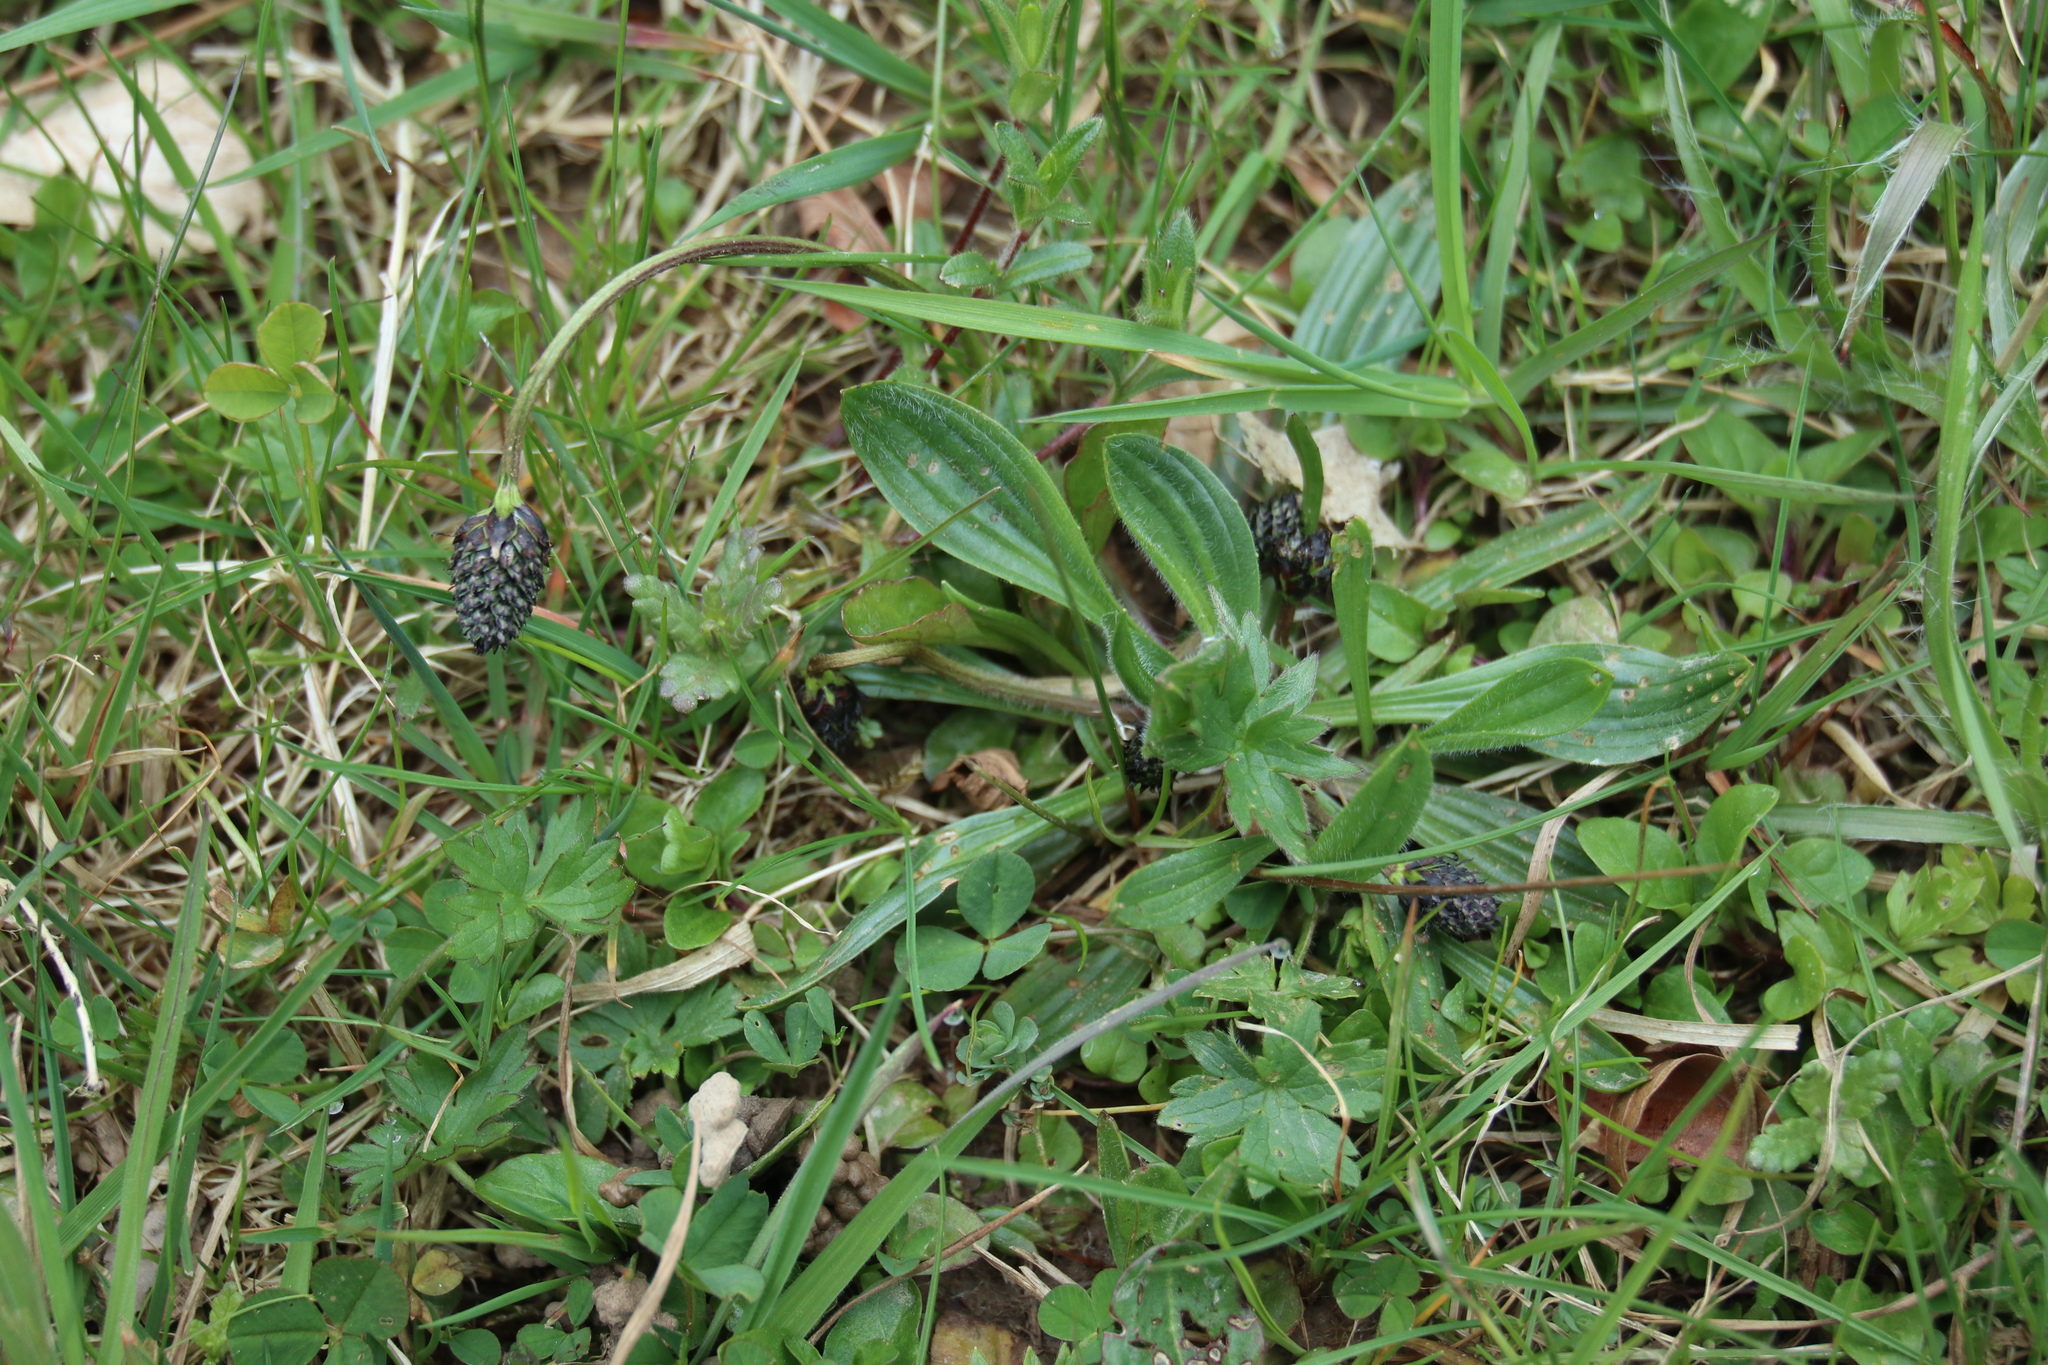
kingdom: Plantae
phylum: Tracheophyta
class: Magnoliopsida
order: Lamiales
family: Plantaginaceae
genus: Plantago
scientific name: Plantago lanceolata
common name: Ribwort plantain
